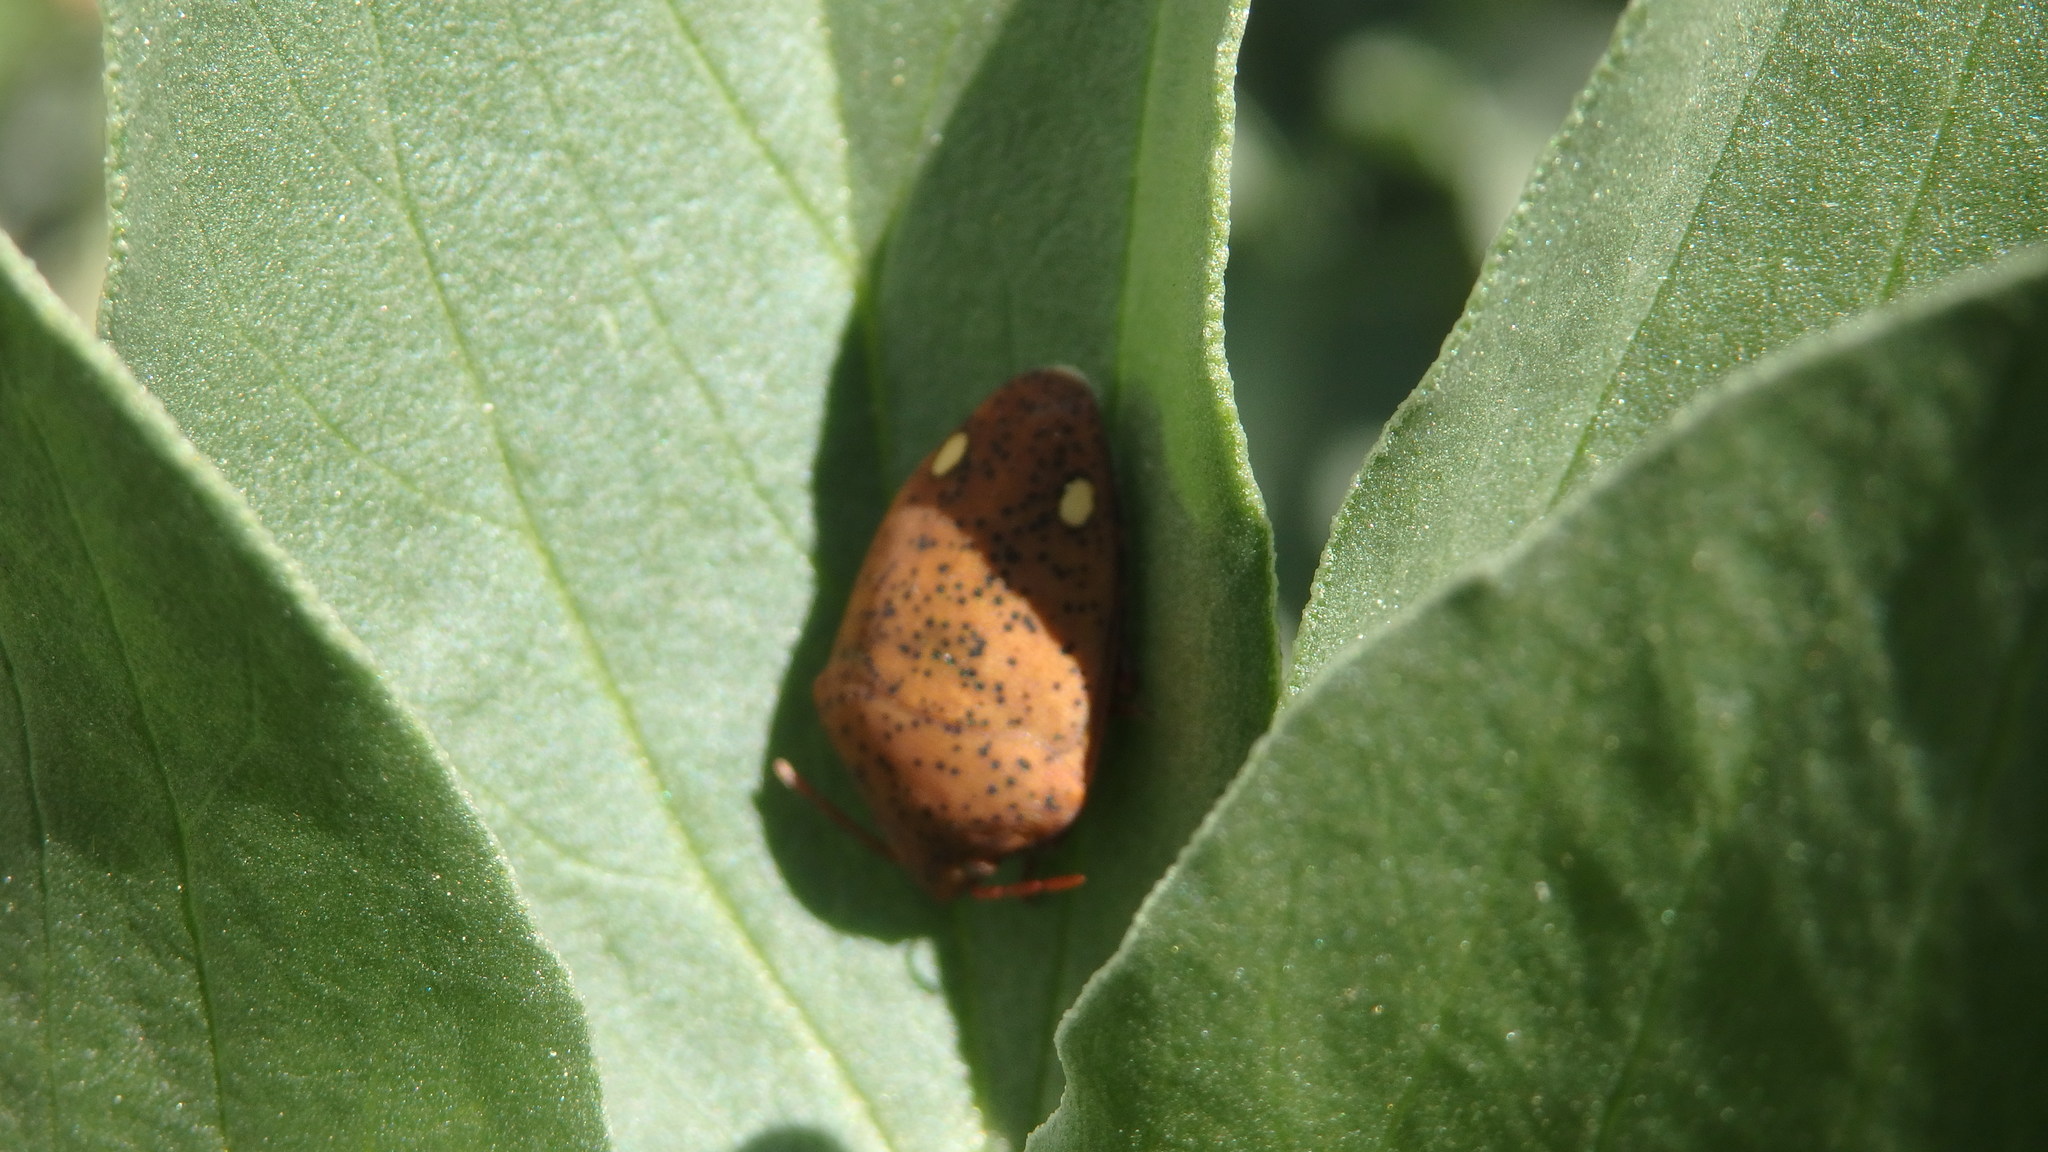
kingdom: Animalia
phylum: Arthropoda
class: Insecta
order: Hemiptera
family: Scutelleridae
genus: Solenosthedium
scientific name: Solenosthedium bilunatum
